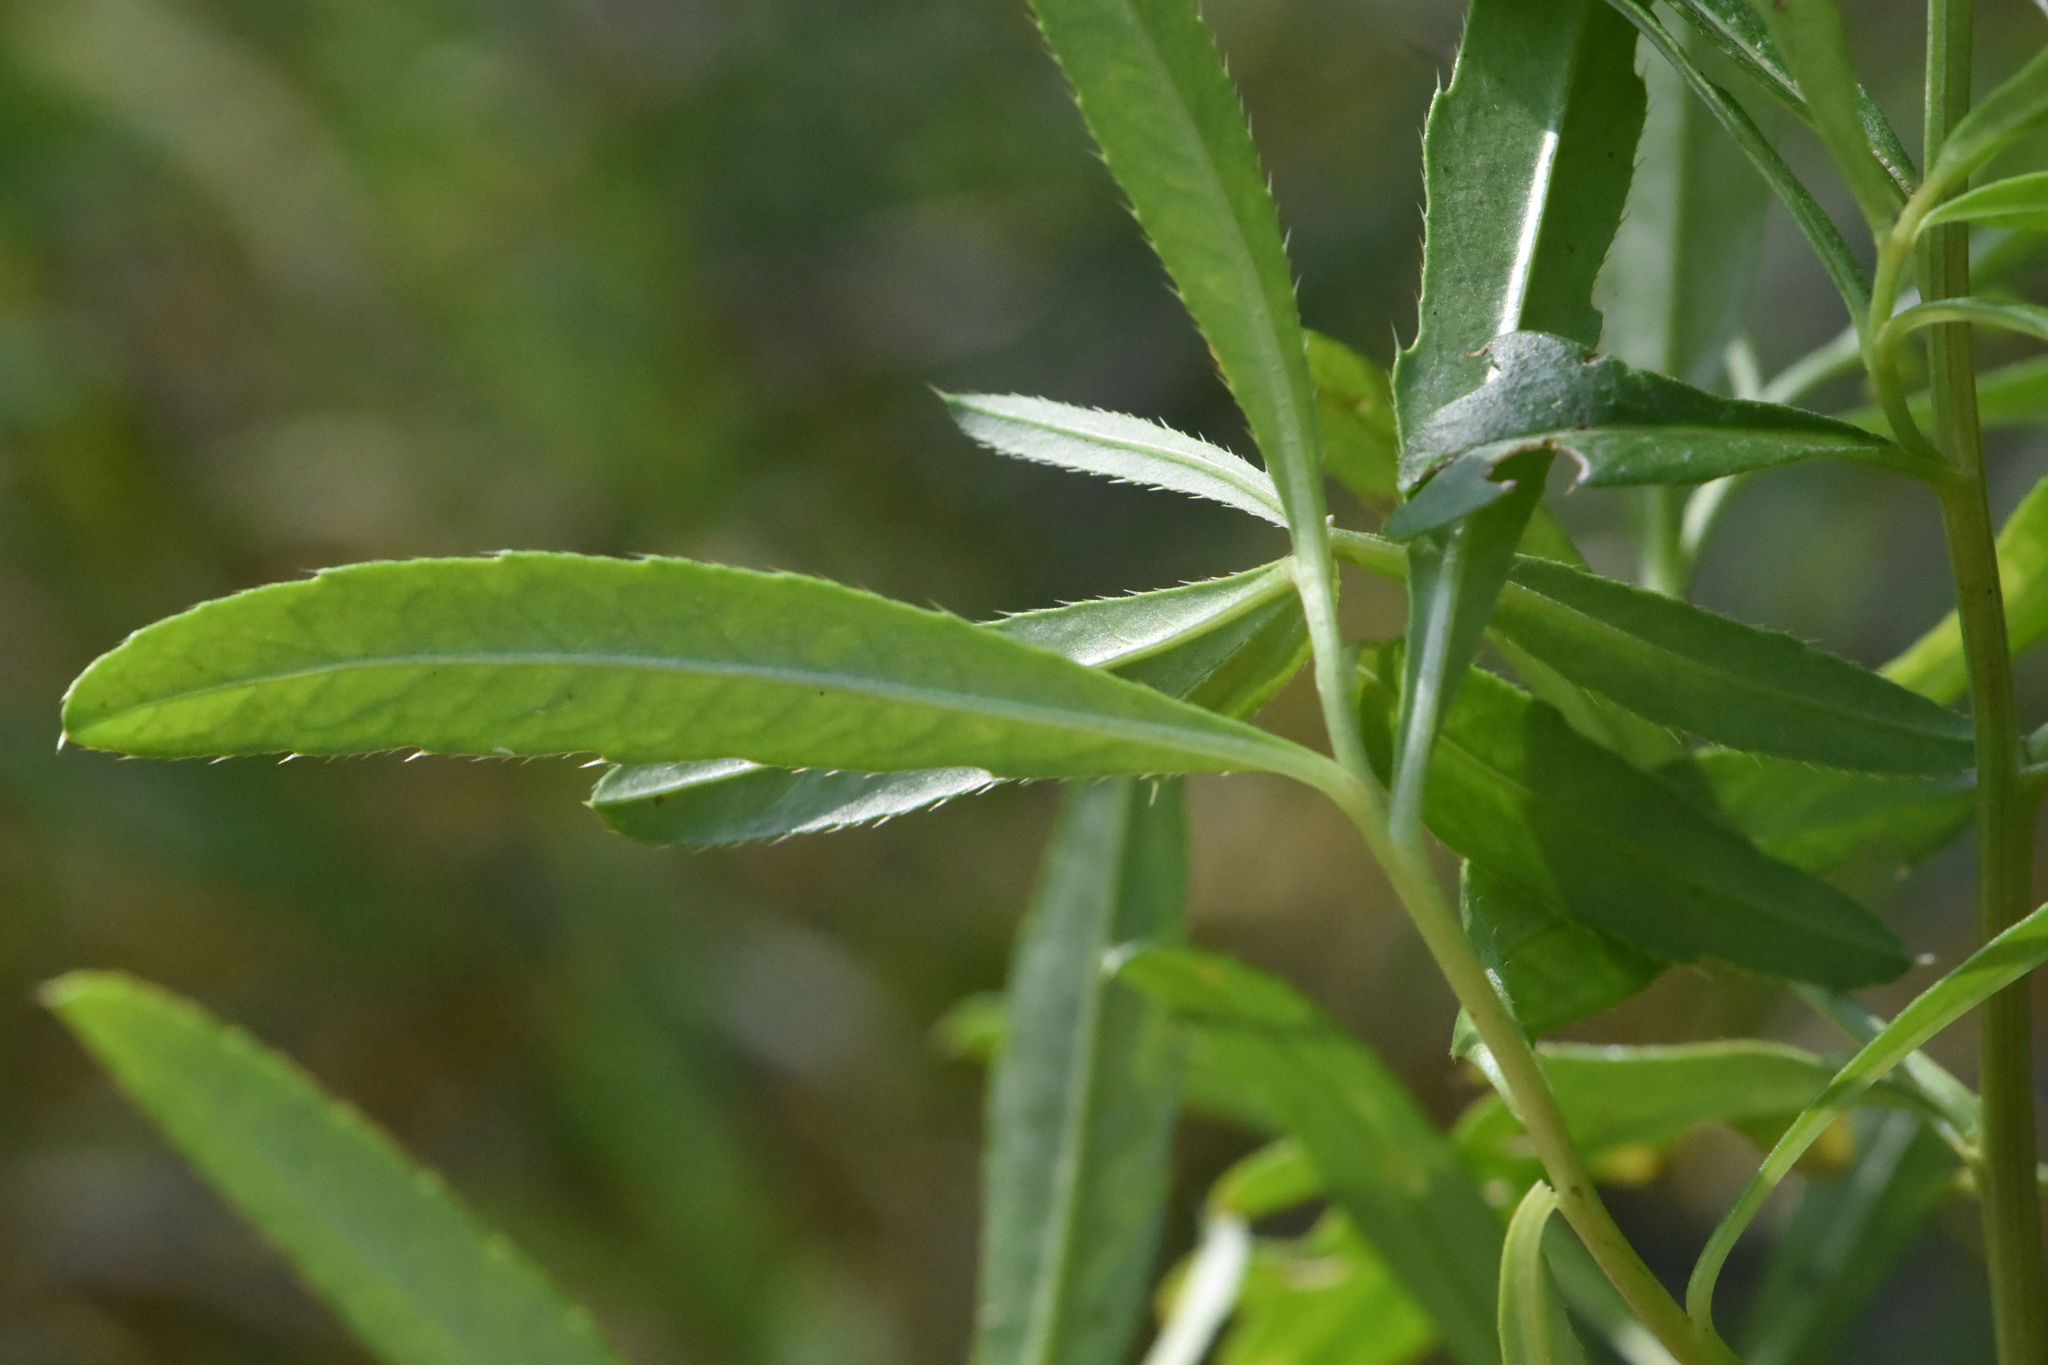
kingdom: Plantae
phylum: Tracheophyta
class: Magnoliopsida
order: Asterales
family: Asteraceae
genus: Cirsium
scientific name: Cirsium arvense
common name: Creeping thistle
